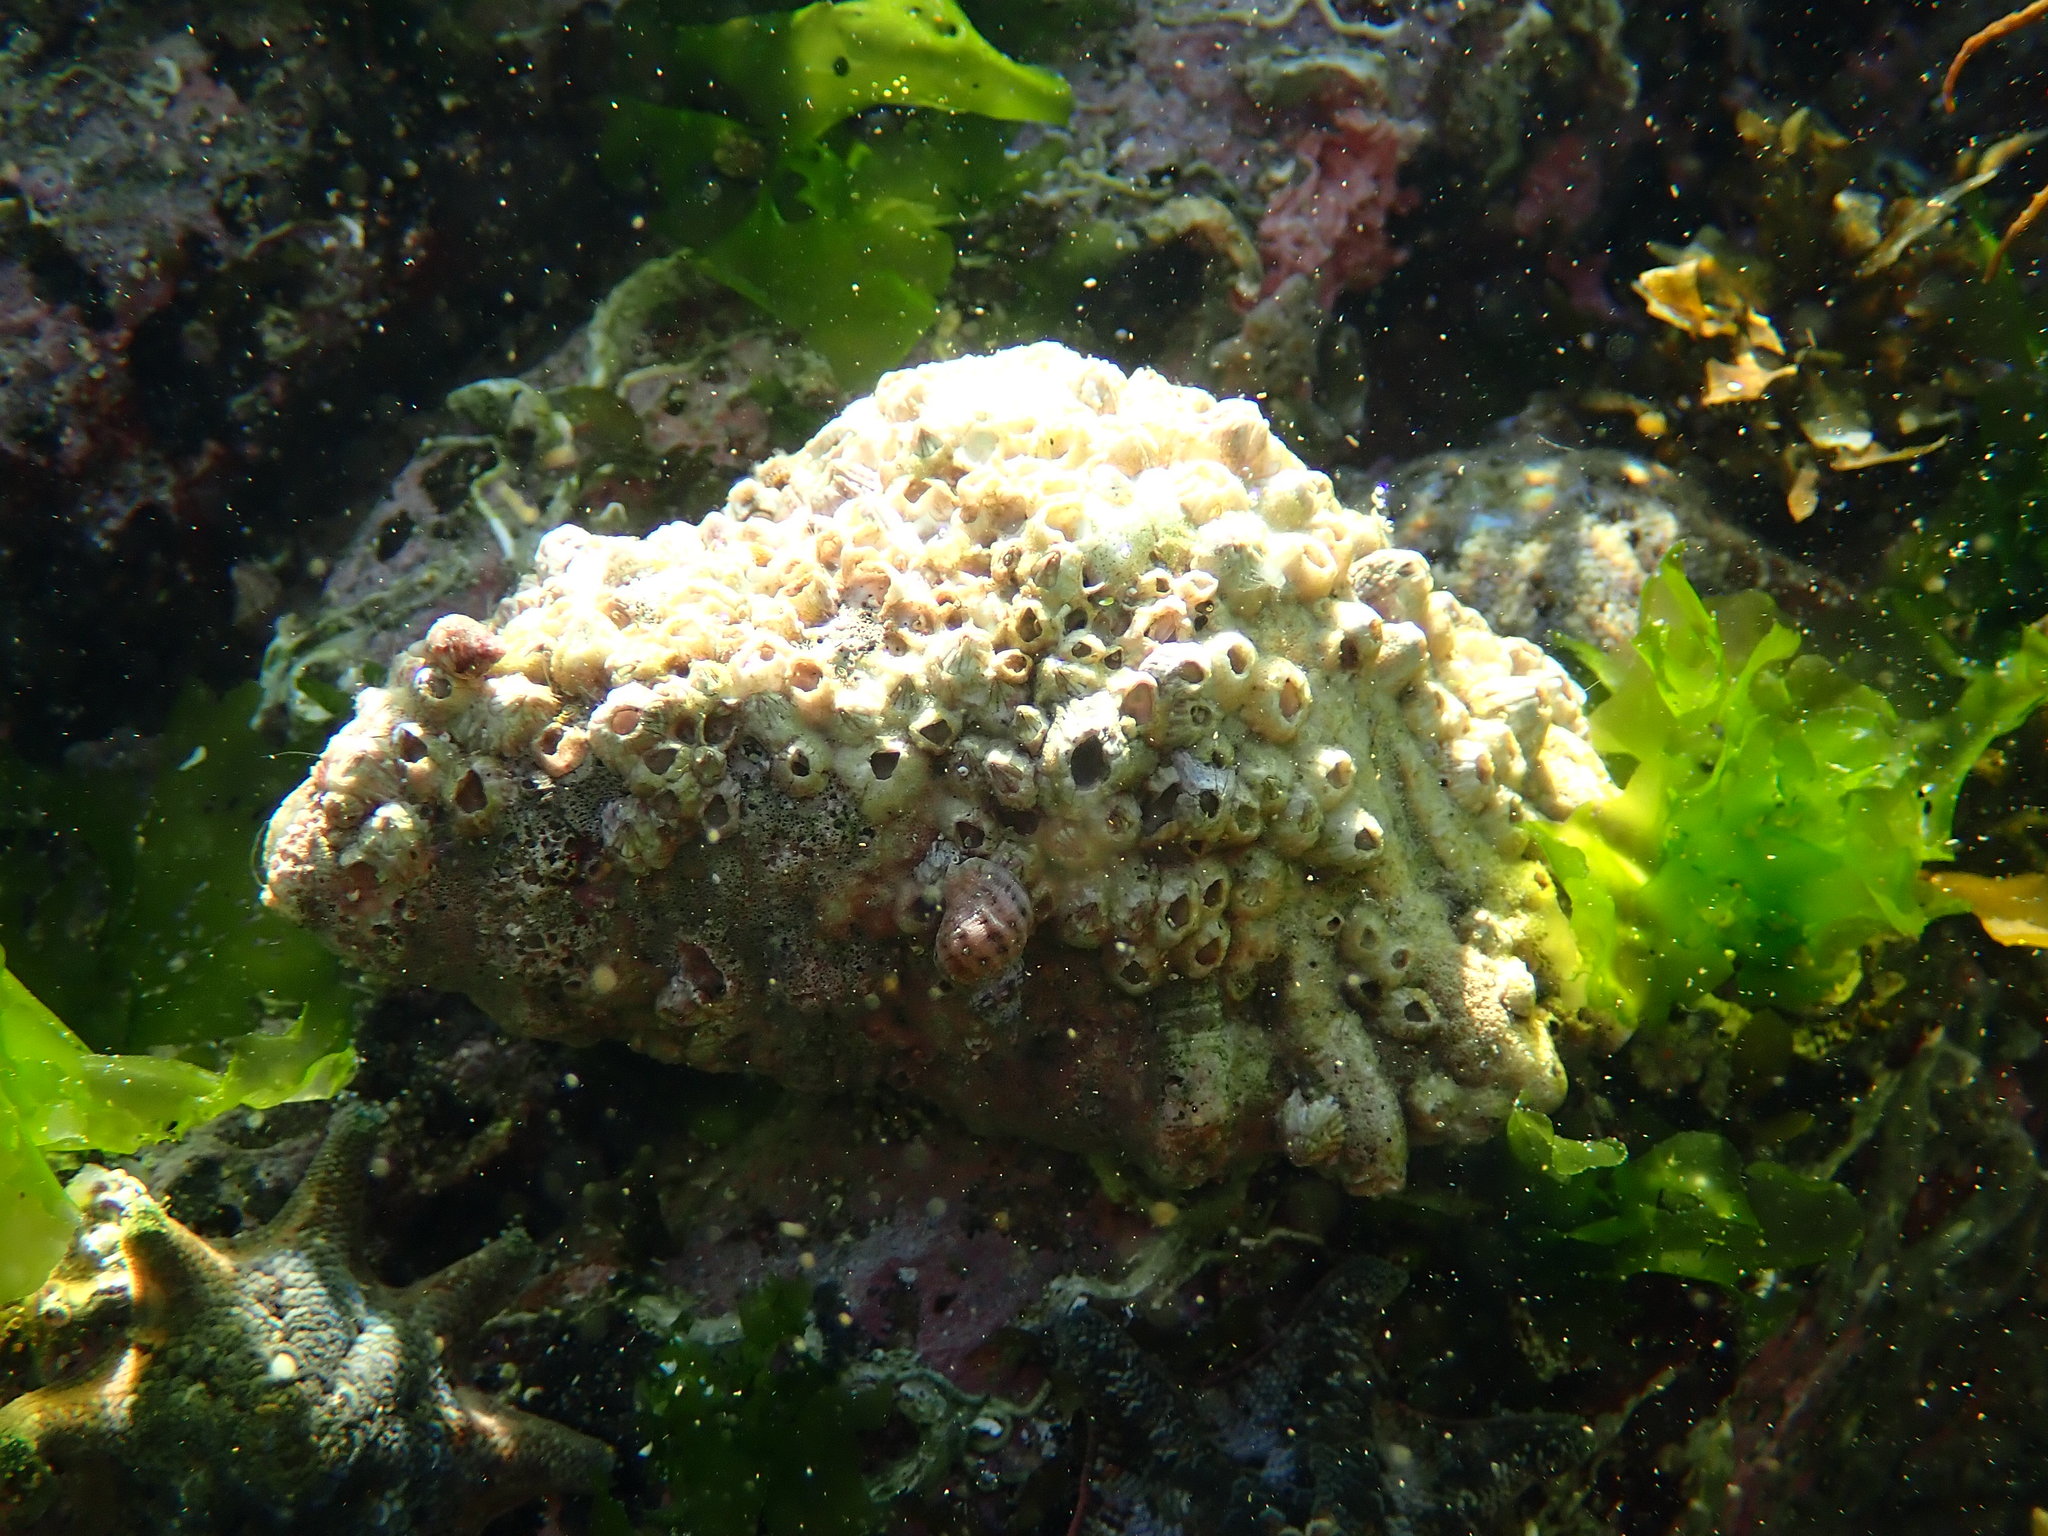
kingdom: Animalia
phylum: Mollusca
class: Gastropoda
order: Littorinimorpha
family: Cymatiidae
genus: Cabestana
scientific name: Cabestana spengleri
